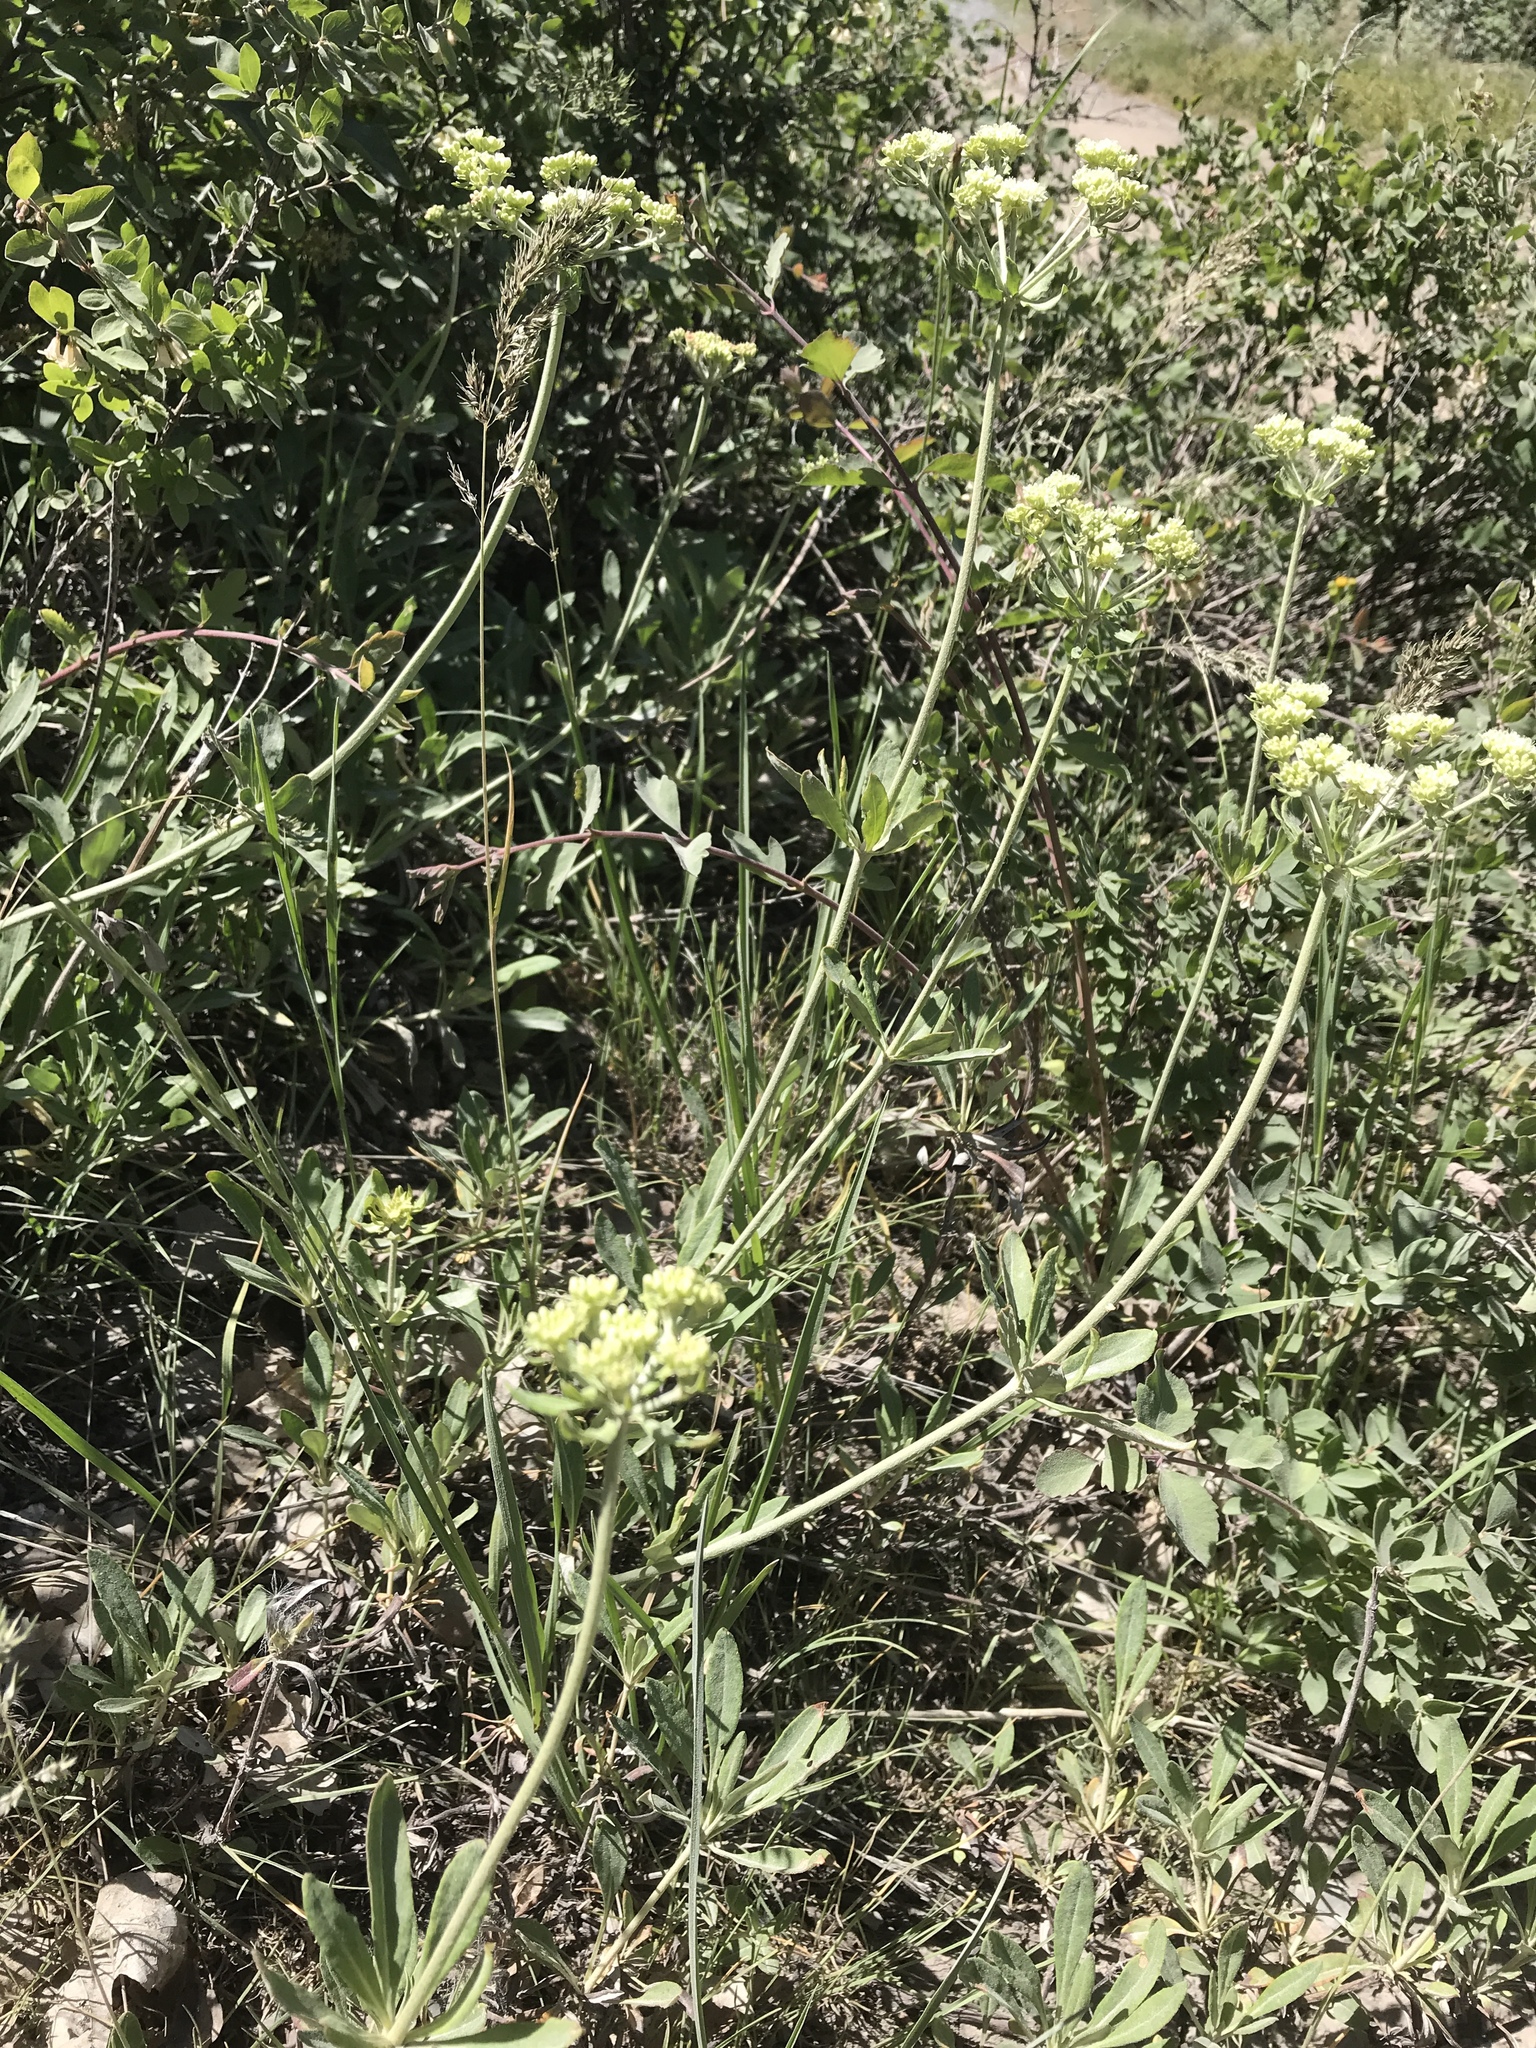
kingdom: Plantae
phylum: Tracheophyta
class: Magnoliopsida
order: Caryophyllales
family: Polygonaceae
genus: Eriogonum
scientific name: Eriogonum heracleoides
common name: Wyeth's buckwheat
